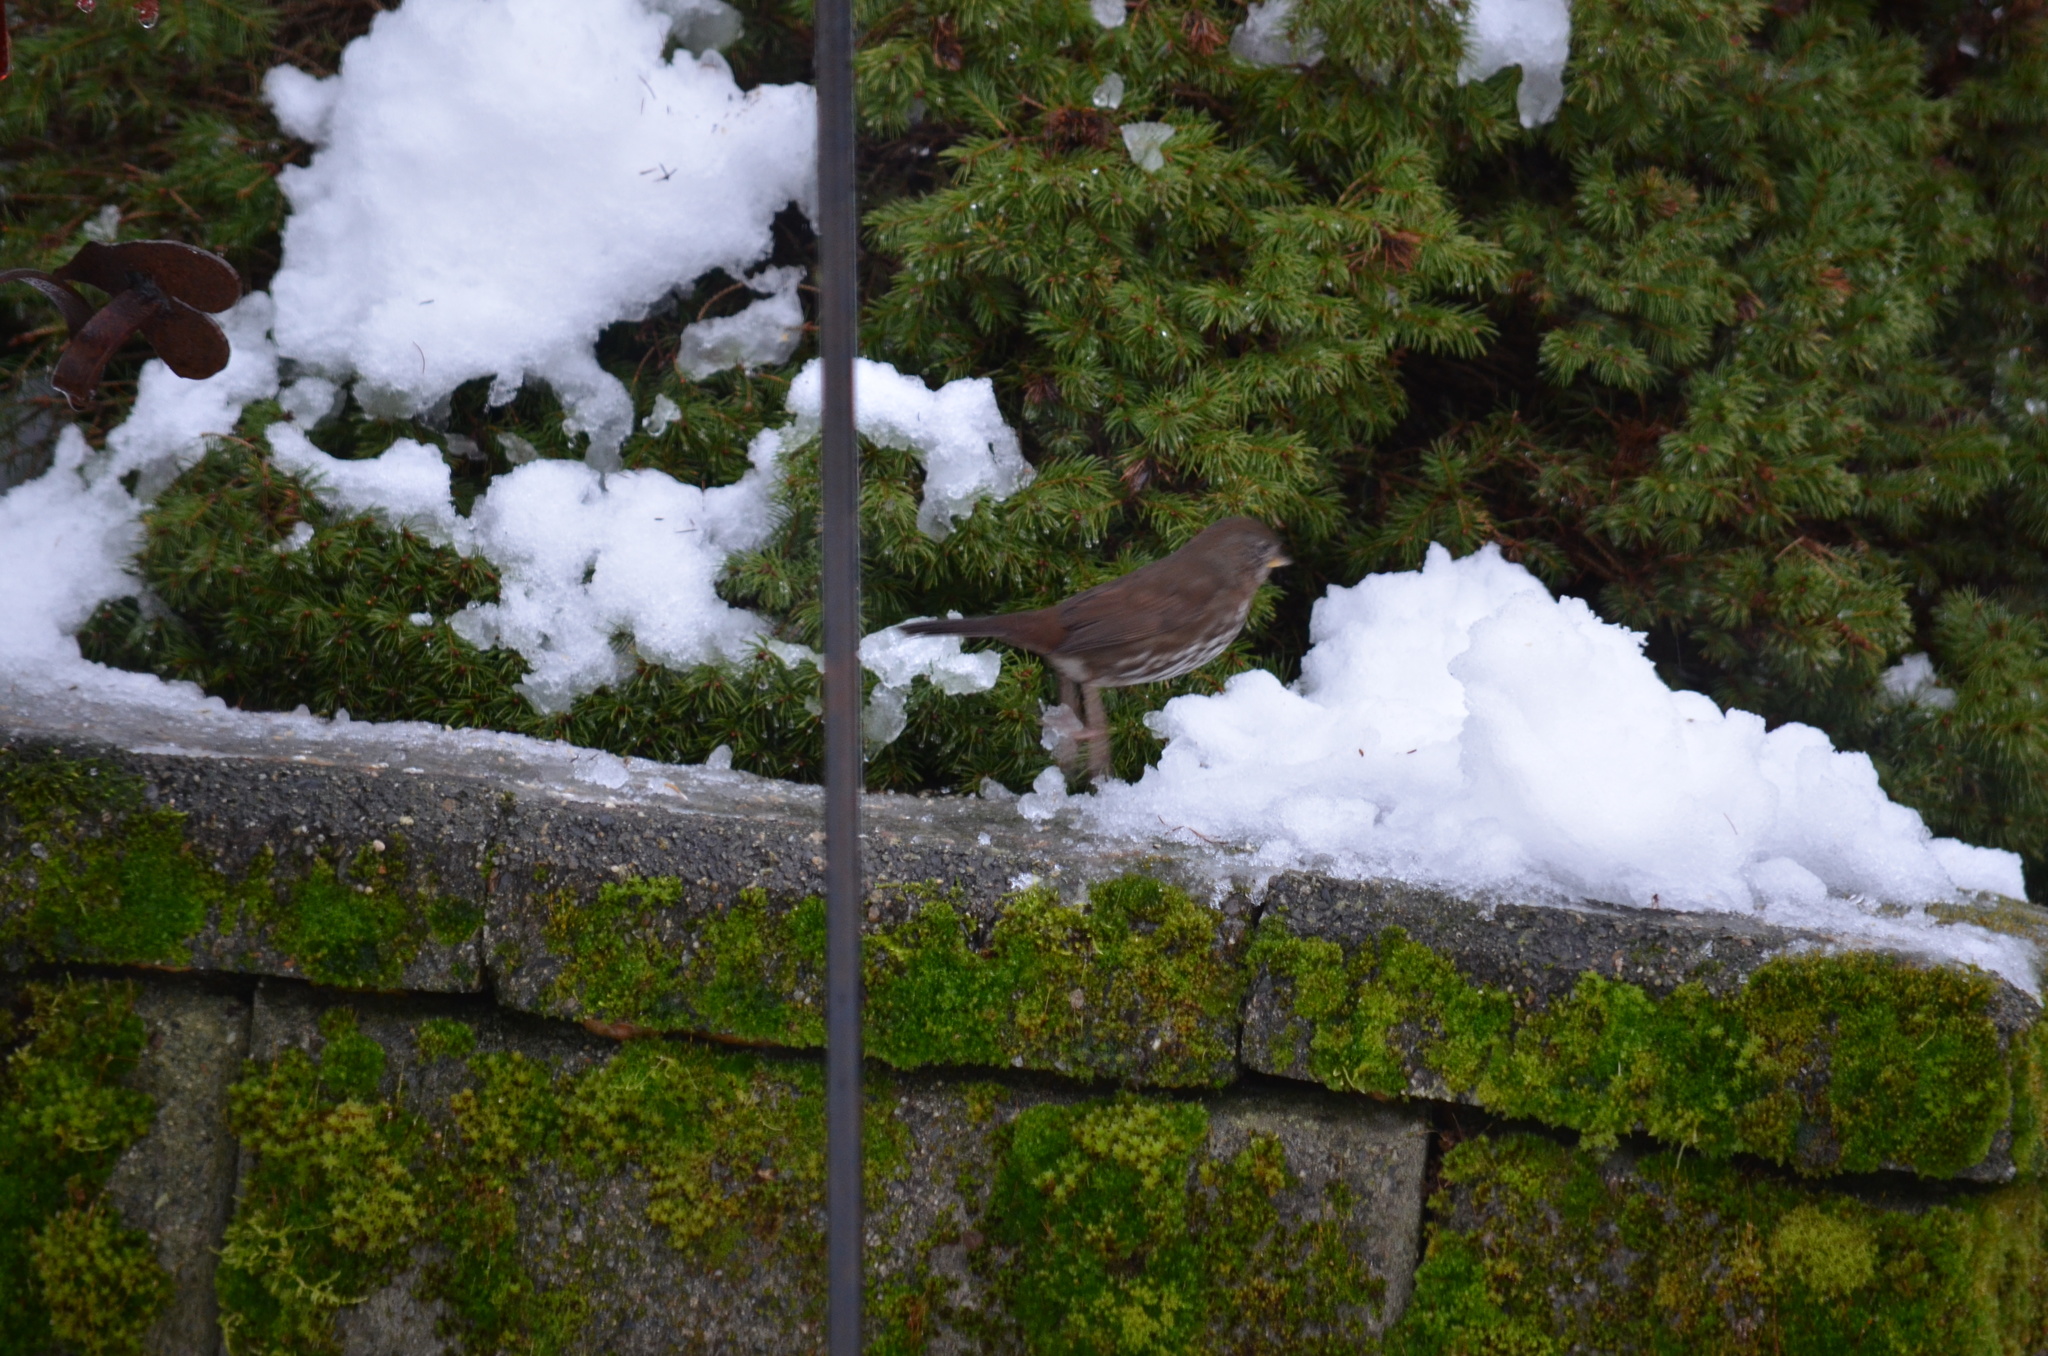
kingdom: Animalia
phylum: Chordata
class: Aves
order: Passeriformes
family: Passerellidae
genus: Passerella
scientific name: Passerella iliaca
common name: Fox sparrow
